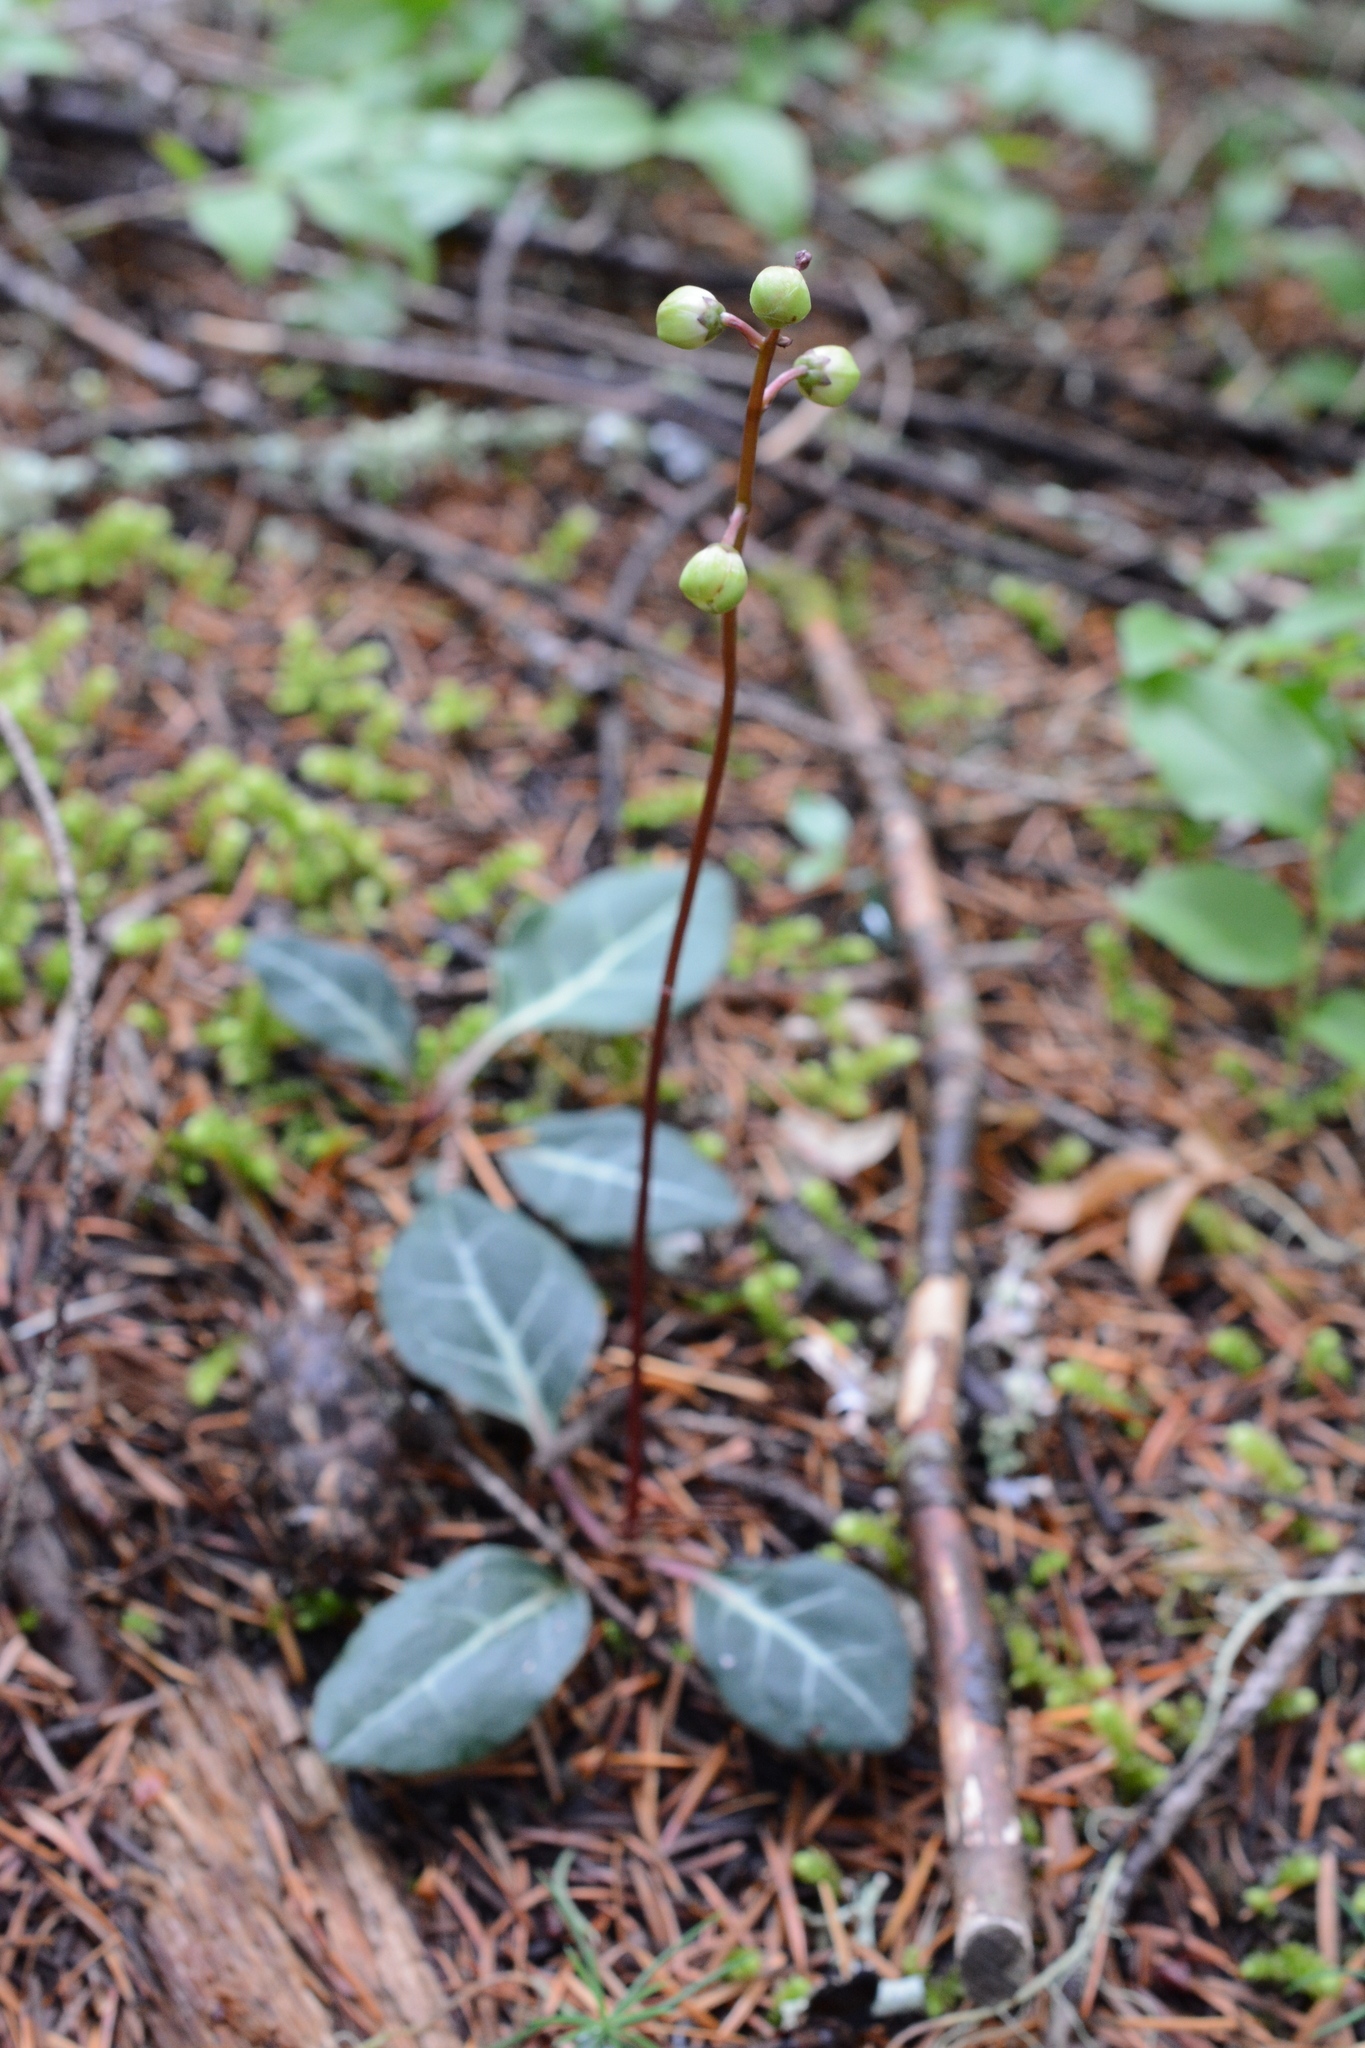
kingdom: Plantae
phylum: Tracheophyta
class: Magnoliopsida
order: Ericales
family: Ericaceae
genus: Pyrola
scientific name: Pyrola picta
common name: White-vein wintergreen
